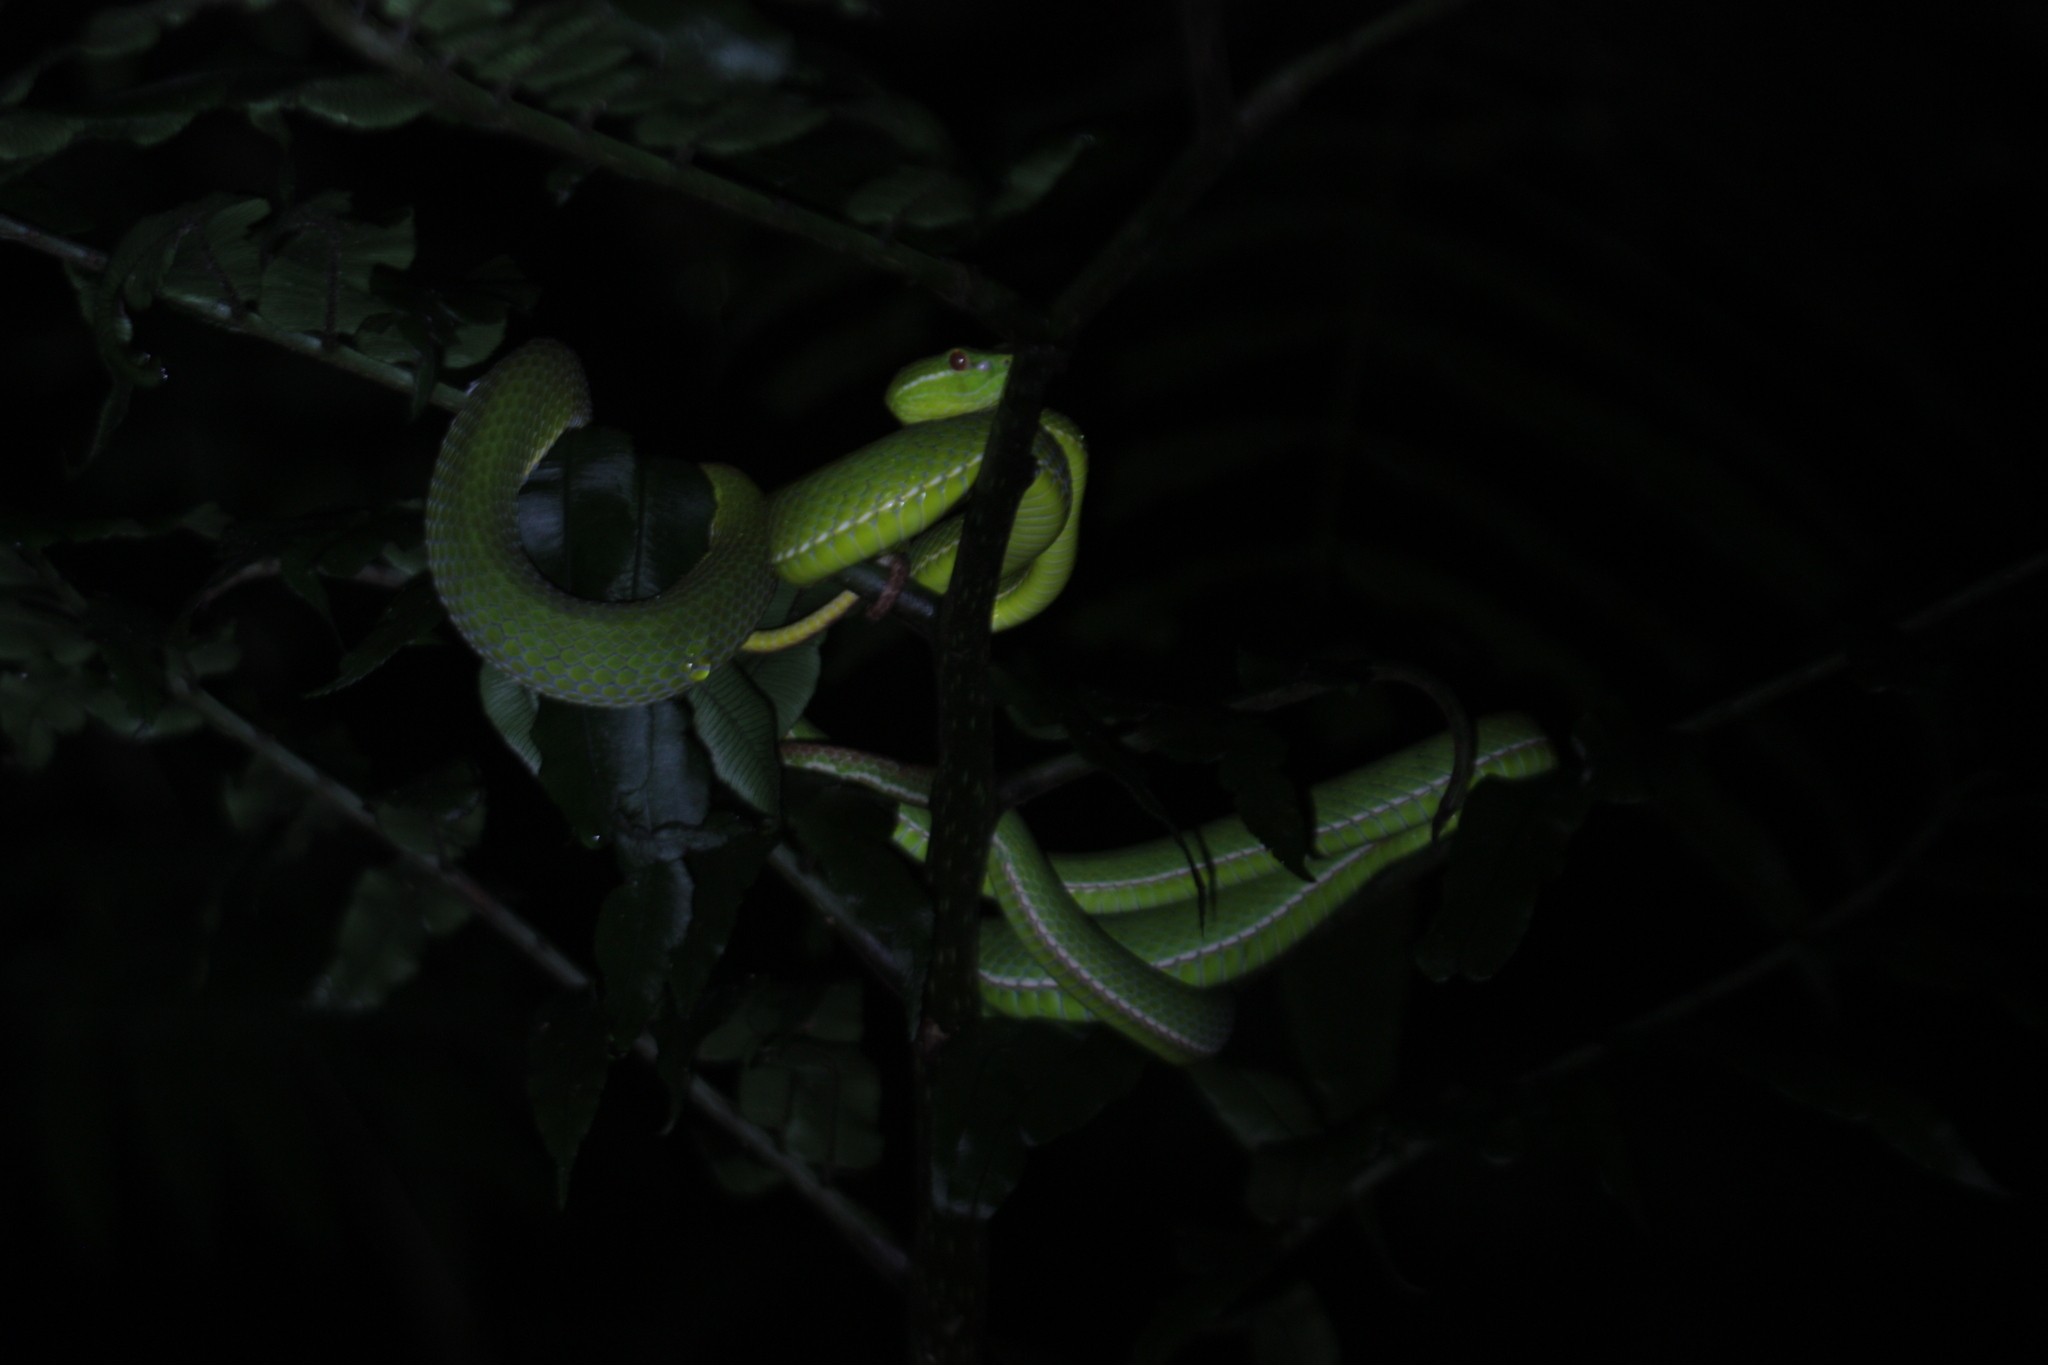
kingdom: Animalia
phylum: Chordata
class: Squamata
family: Viperidae
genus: Trimeresurus
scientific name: Trimeresurus stejnegeri
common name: Chen’s bamboo pit viper
